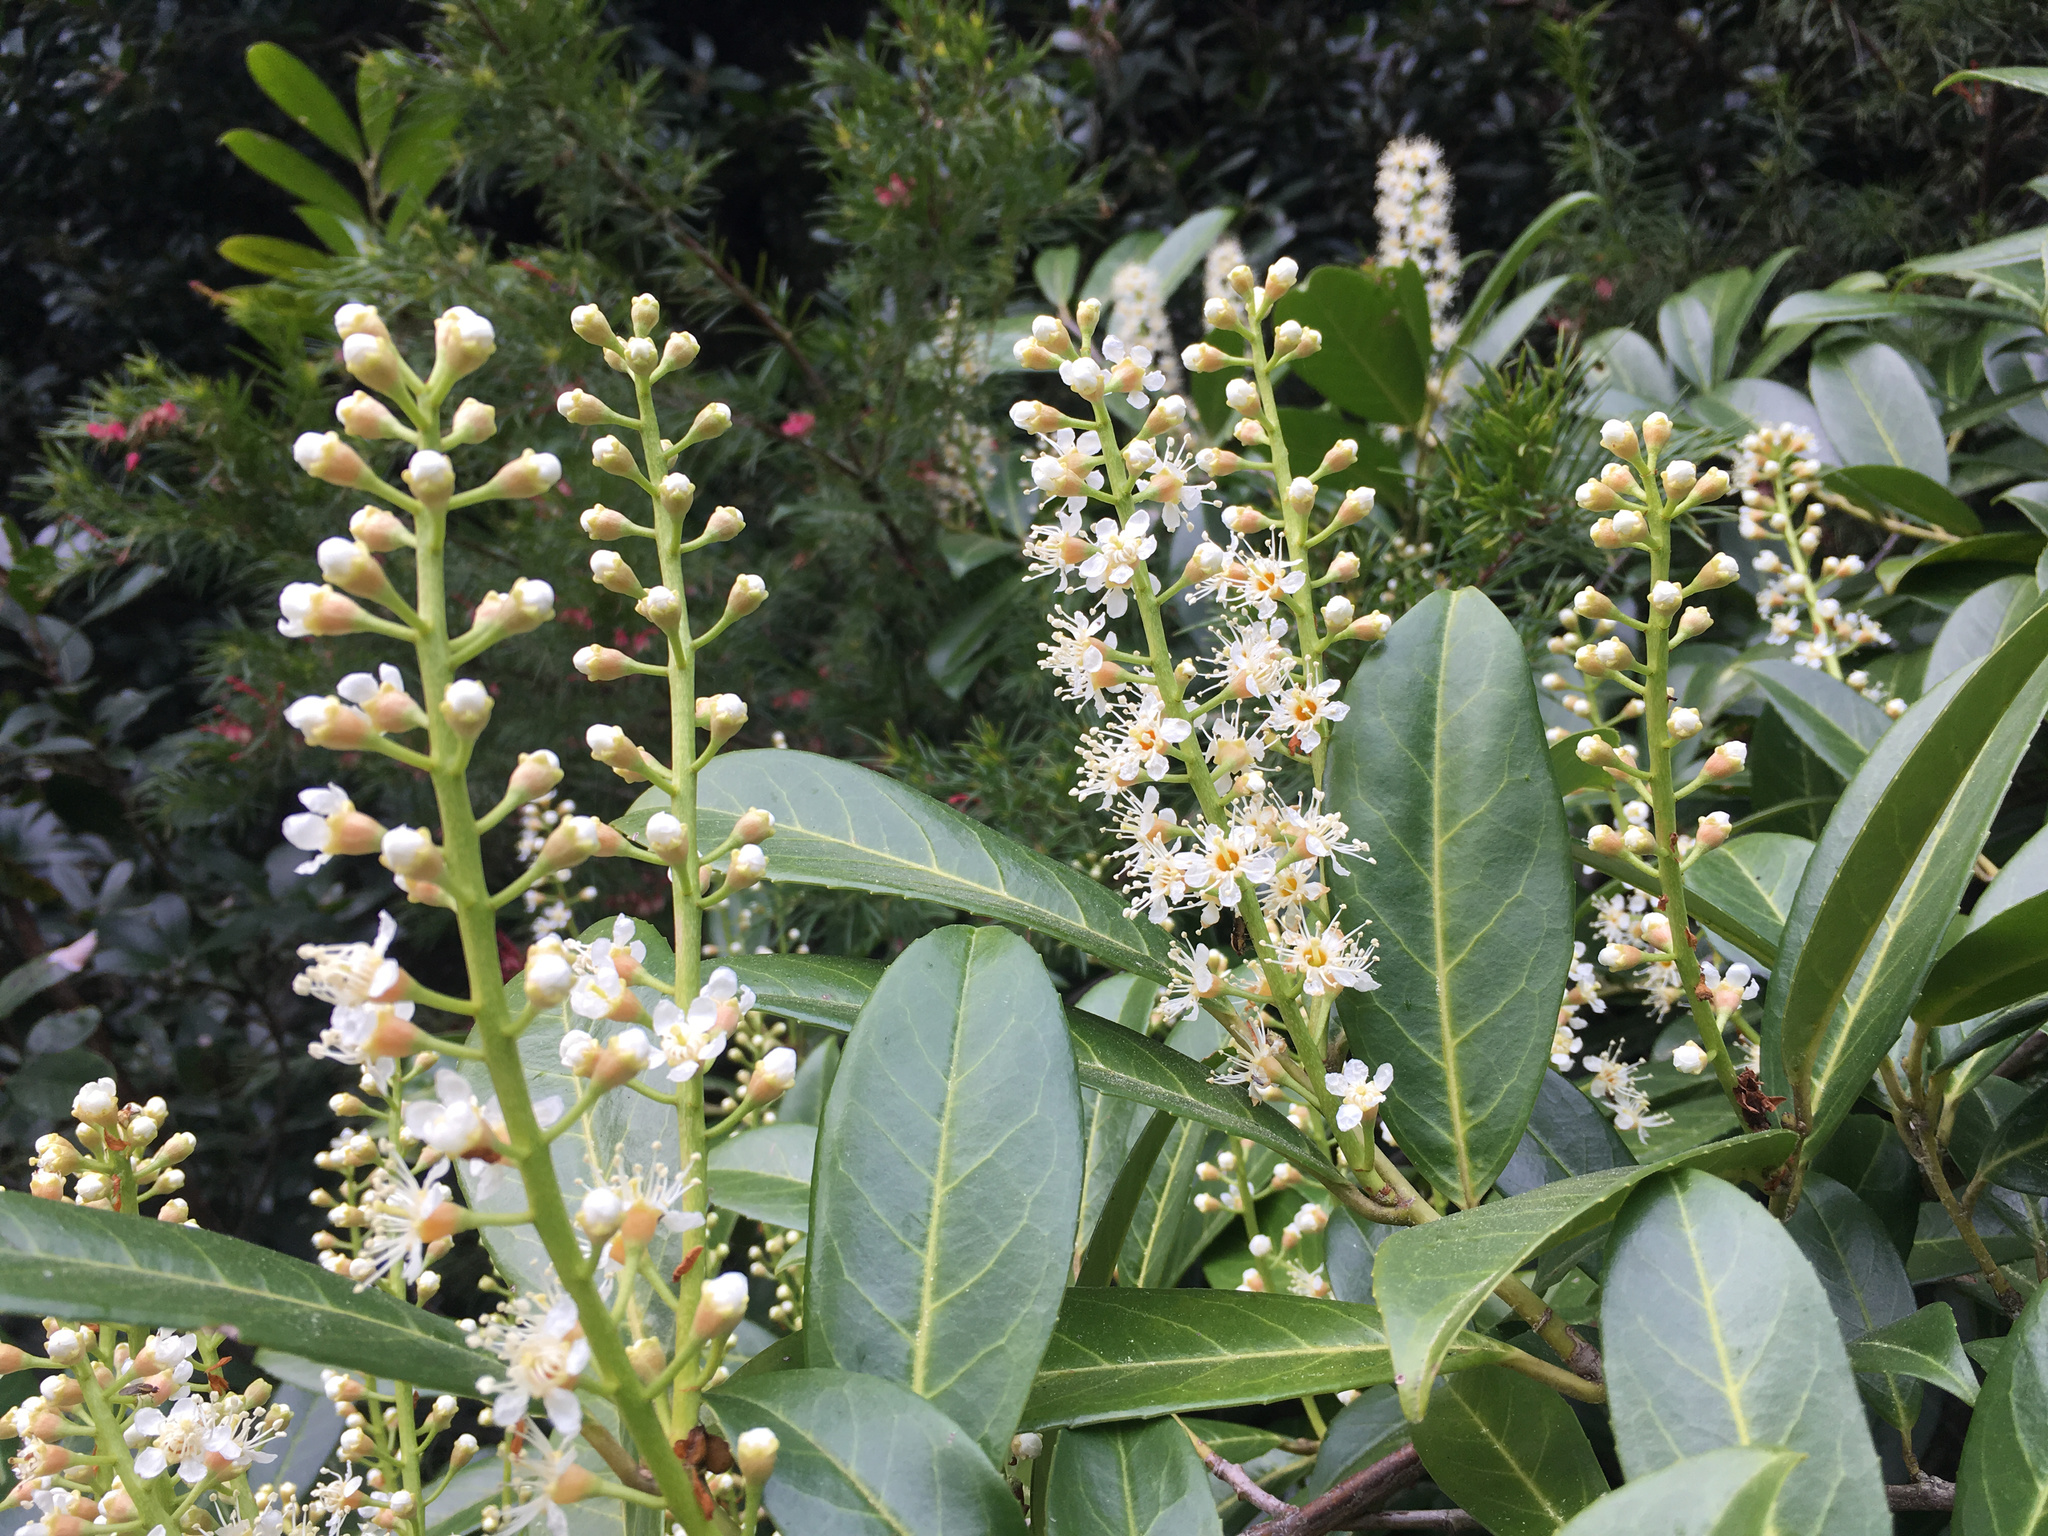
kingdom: Plantae
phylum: Tracheophyta
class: Magnoliopsida
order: Rosales
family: Rosaceae
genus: Prunus
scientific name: Prunus laurocerasus
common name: Cherry laurel
